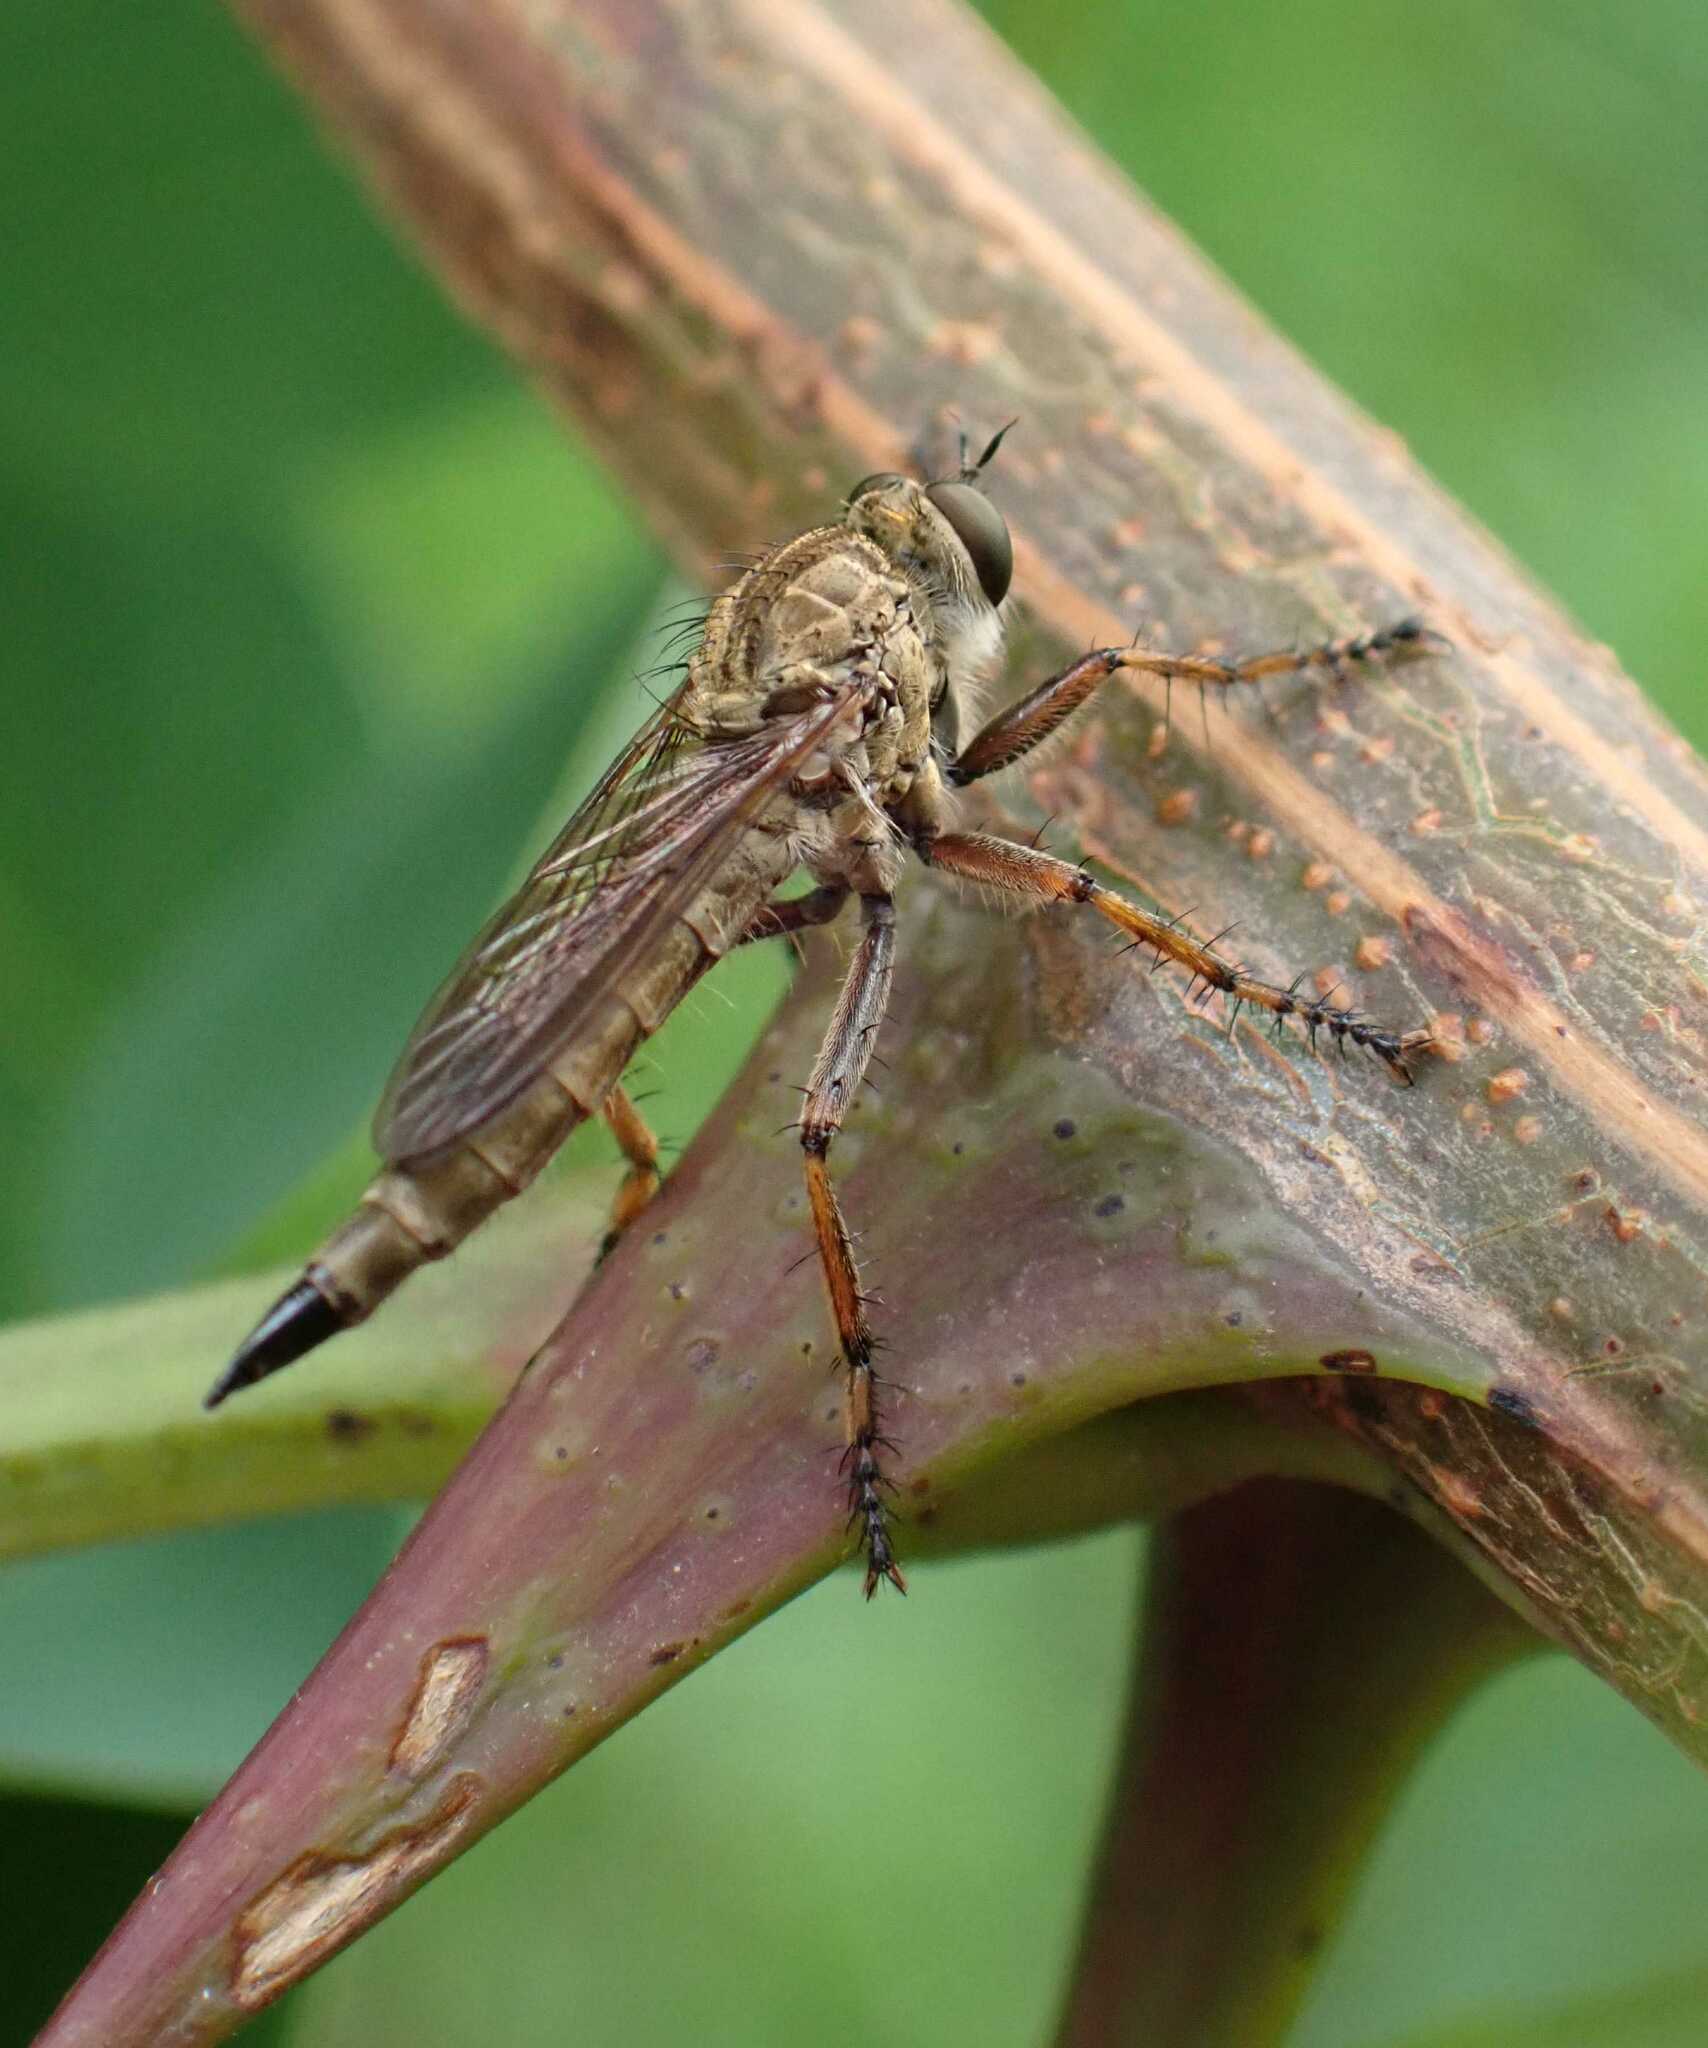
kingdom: Animalia
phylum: Arthropoda
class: Insecta
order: Diptera
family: Asilidae
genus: Epitriptus
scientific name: Epitriptus cingulatus
